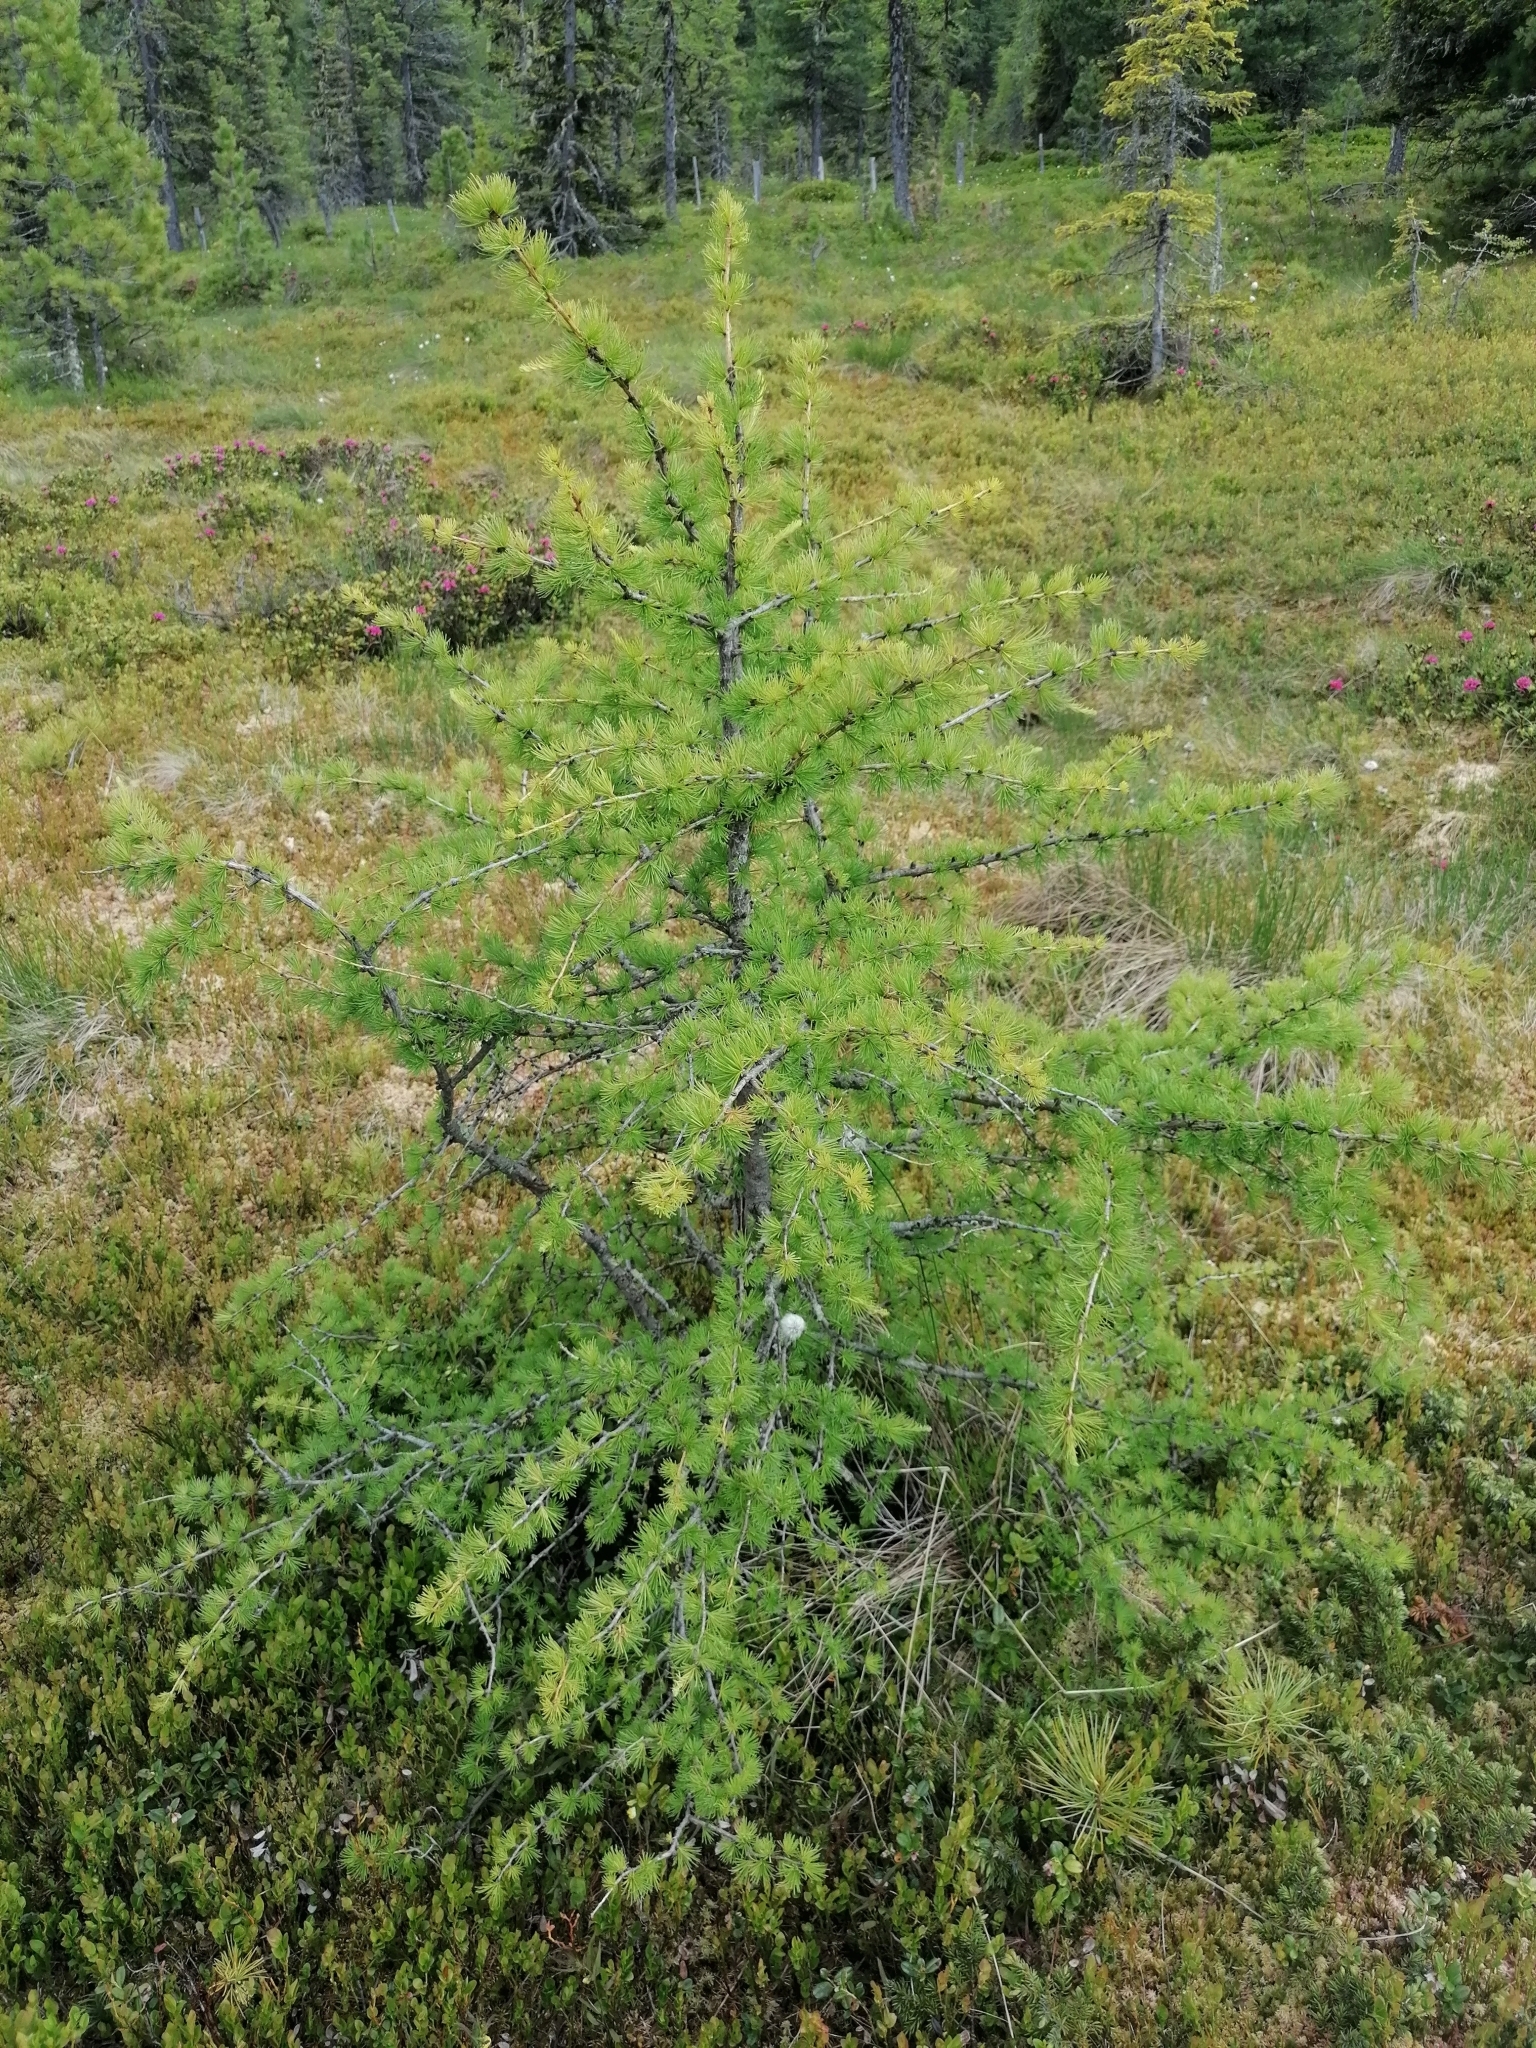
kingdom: Plantae
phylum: Tracheophyta
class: Pinopsida
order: Pinales
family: Pinaceae
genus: Larix
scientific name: Larix decidua
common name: European larch
